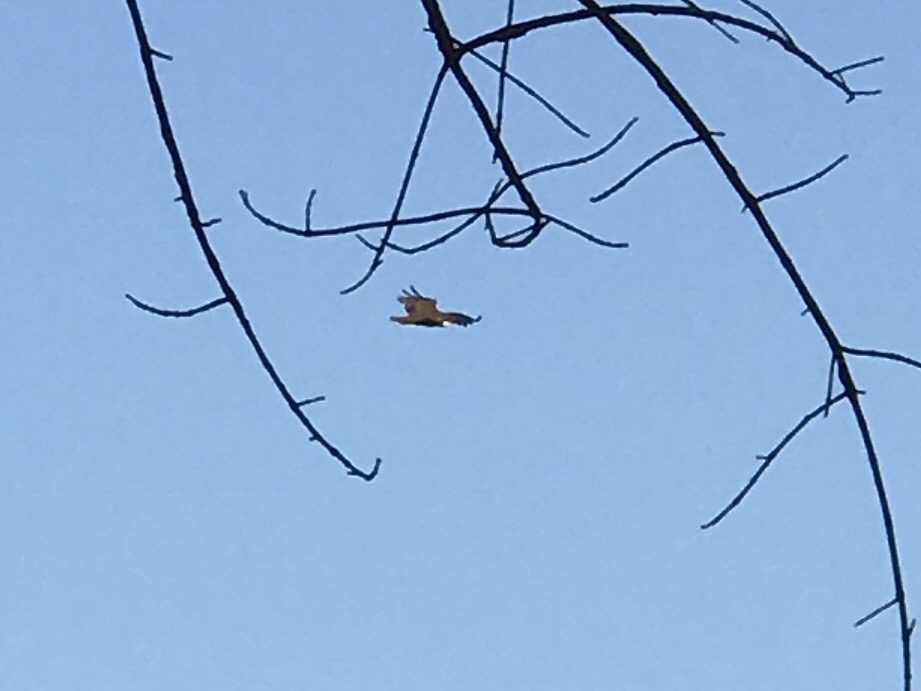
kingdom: Animalia
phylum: Chordata
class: Aves
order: Accipitriformes
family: Pandionidae
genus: Pandion
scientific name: Pandion haliaetus
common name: Osprey
